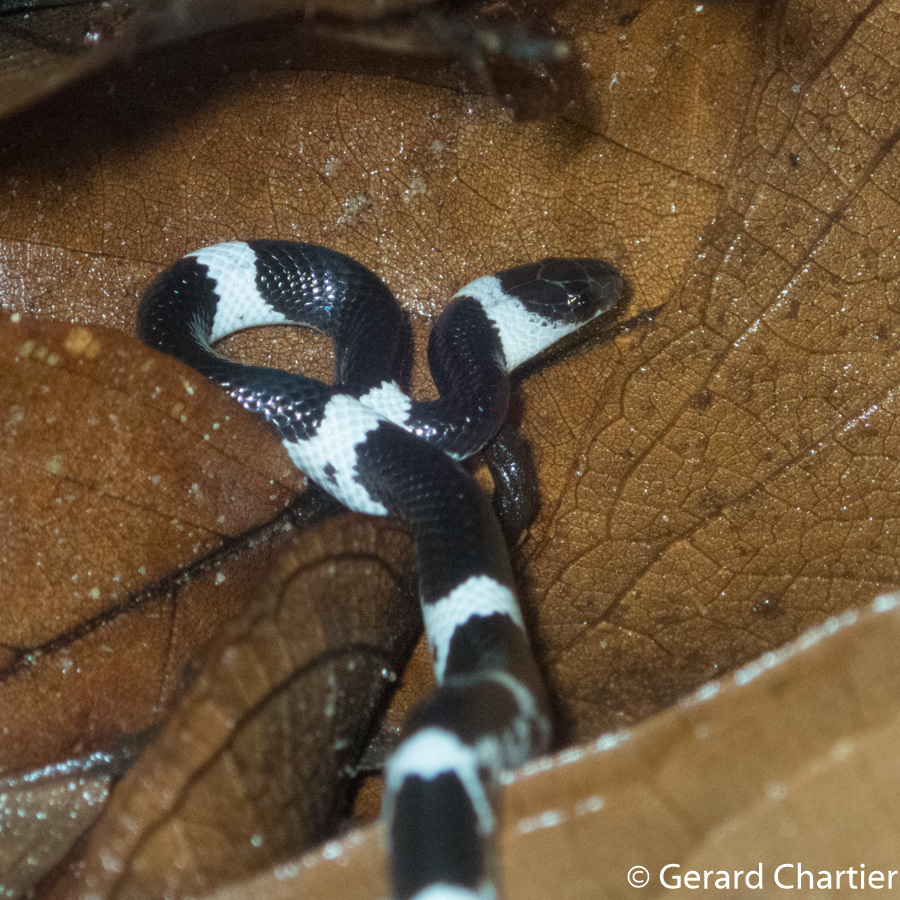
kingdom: Animalia
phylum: Chordata
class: Squamata
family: Colubridae
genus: Lycodon
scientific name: Lycodon laoensis
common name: Laotian wolf snake
